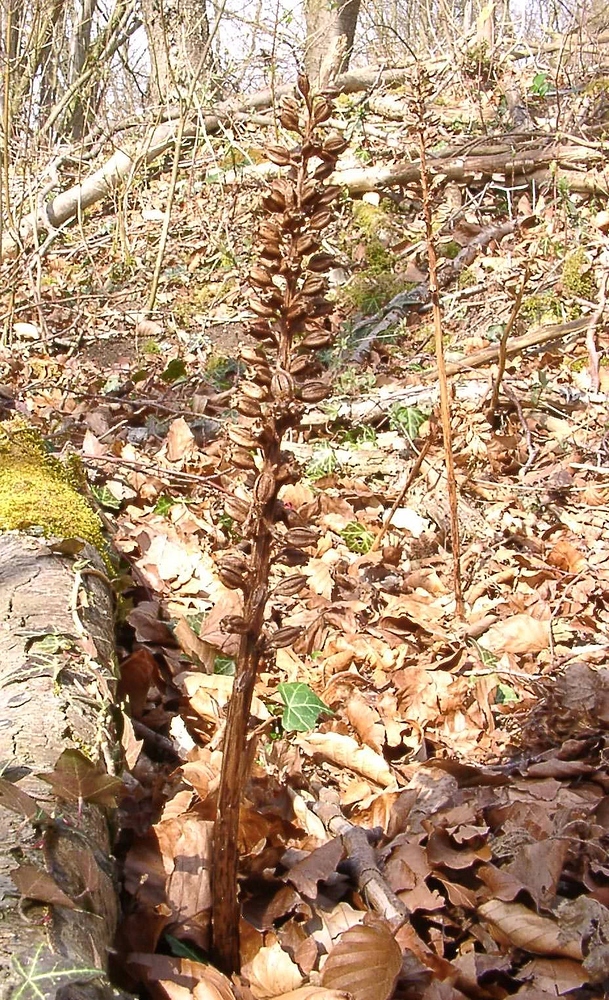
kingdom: Plantae
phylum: Tracheophyta
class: Liliopsida
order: Asparagales
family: Orchidaceae
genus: Neottia
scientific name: Neottia nidus-avis
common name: Bird's-nest orchid
